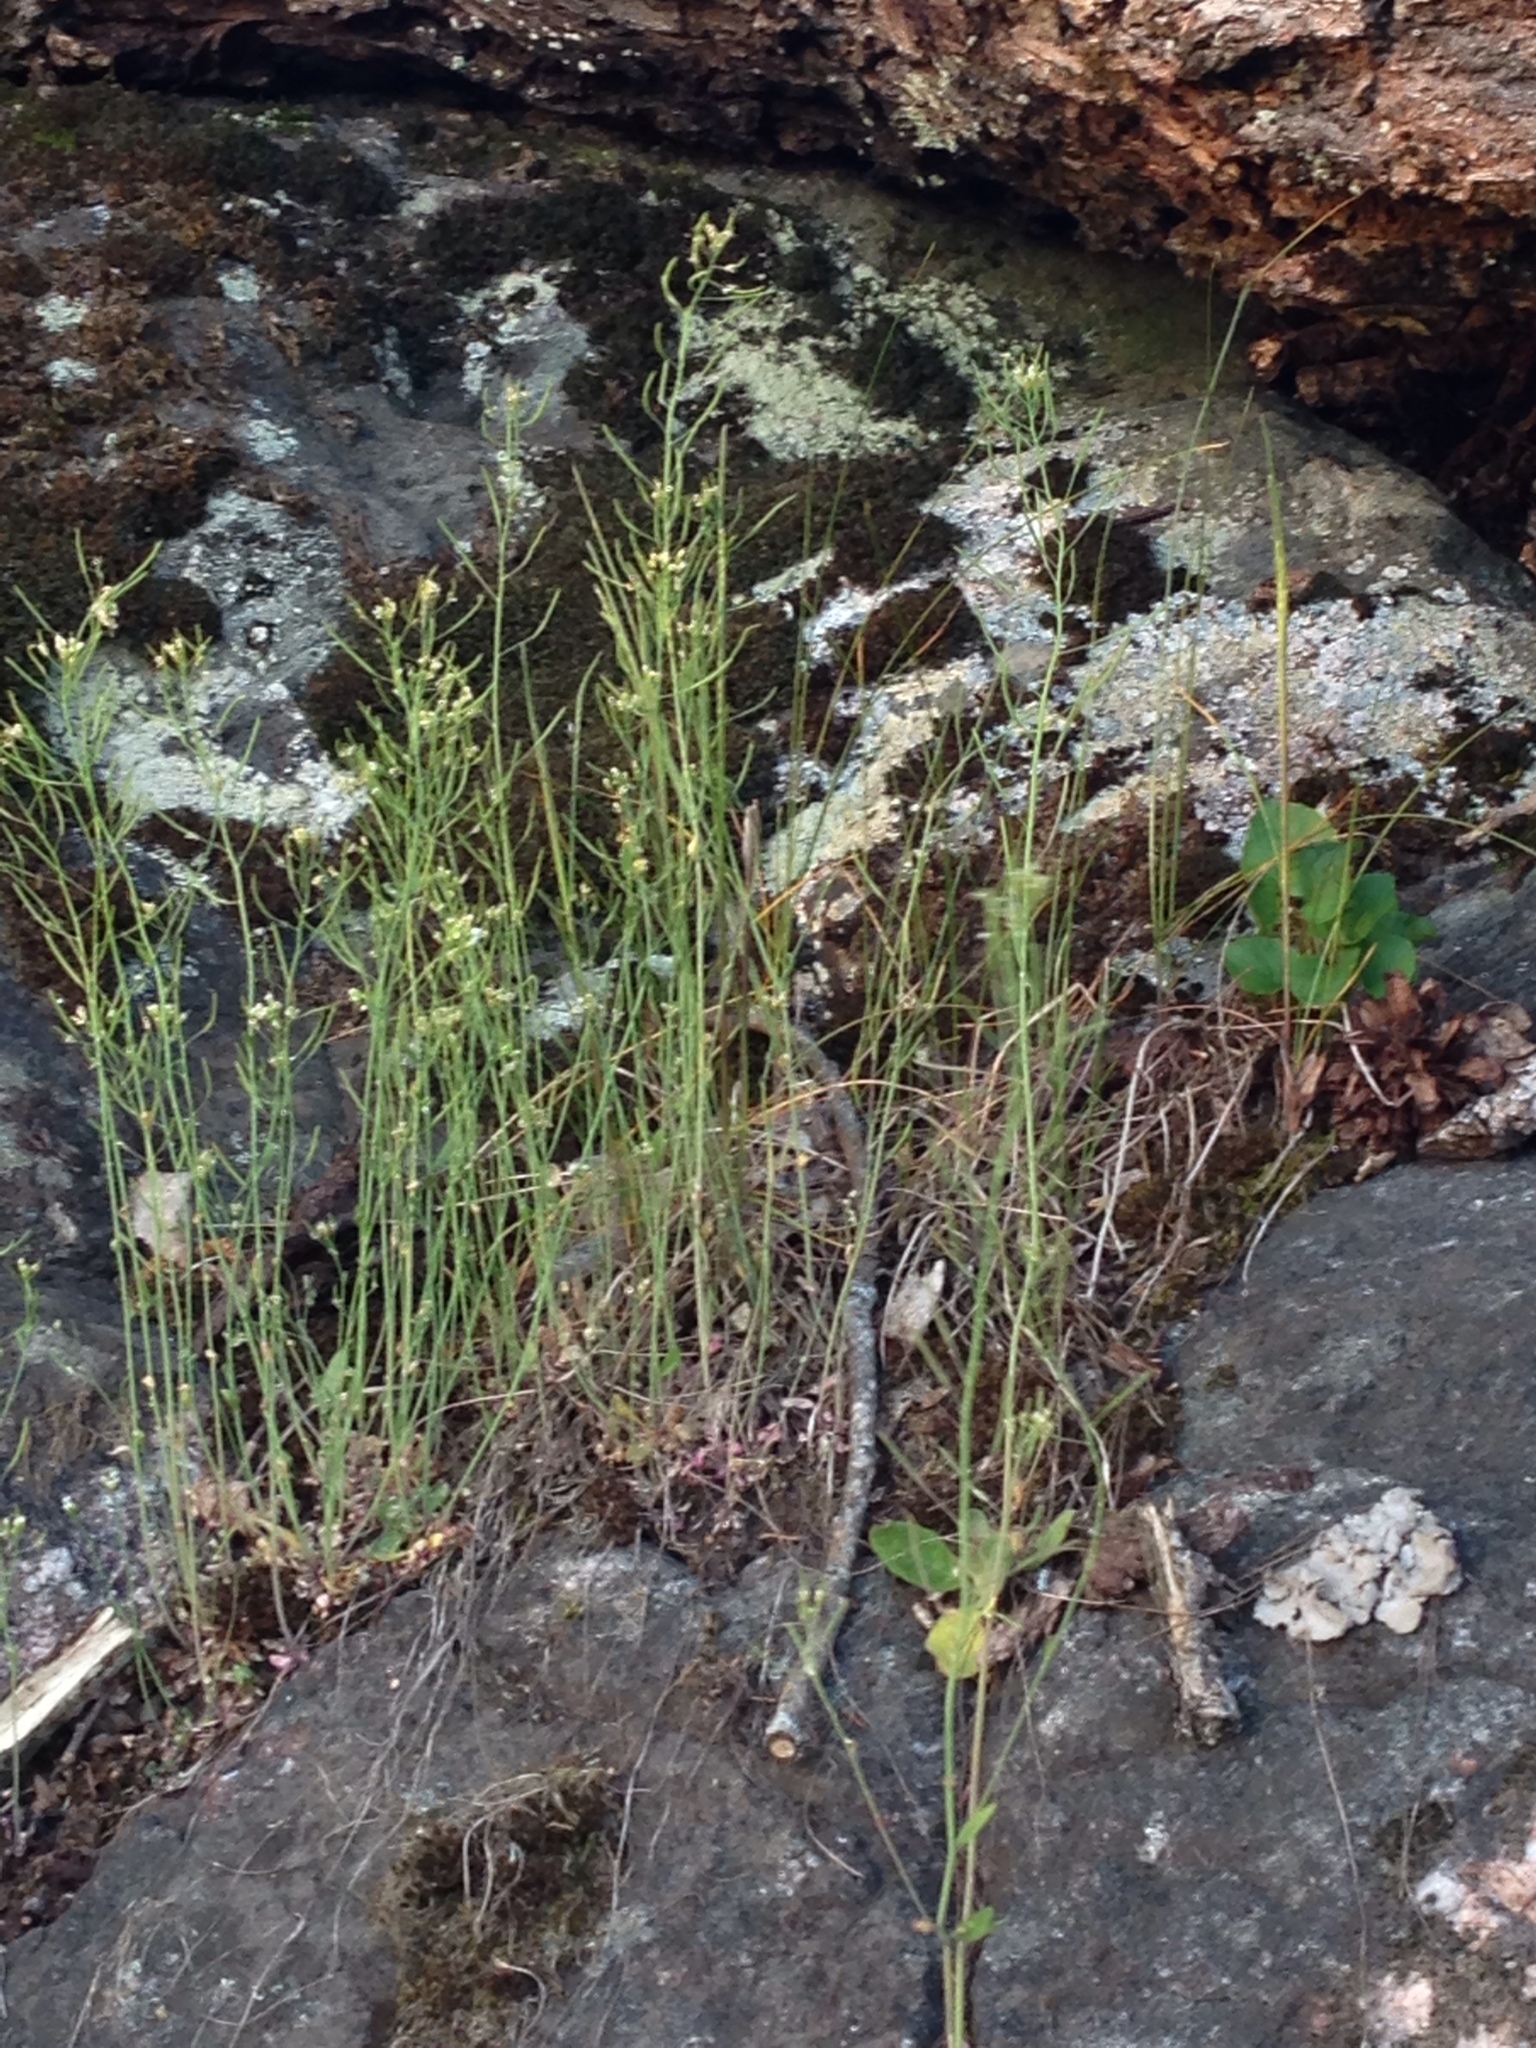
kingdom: Plantae
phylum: Tracheophyta
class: Magnoliopsida
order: Brassicales
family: Brassicaceae
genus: Arabidopsis
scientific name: Arabidopsis arenosa
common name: Sand rock-cress
